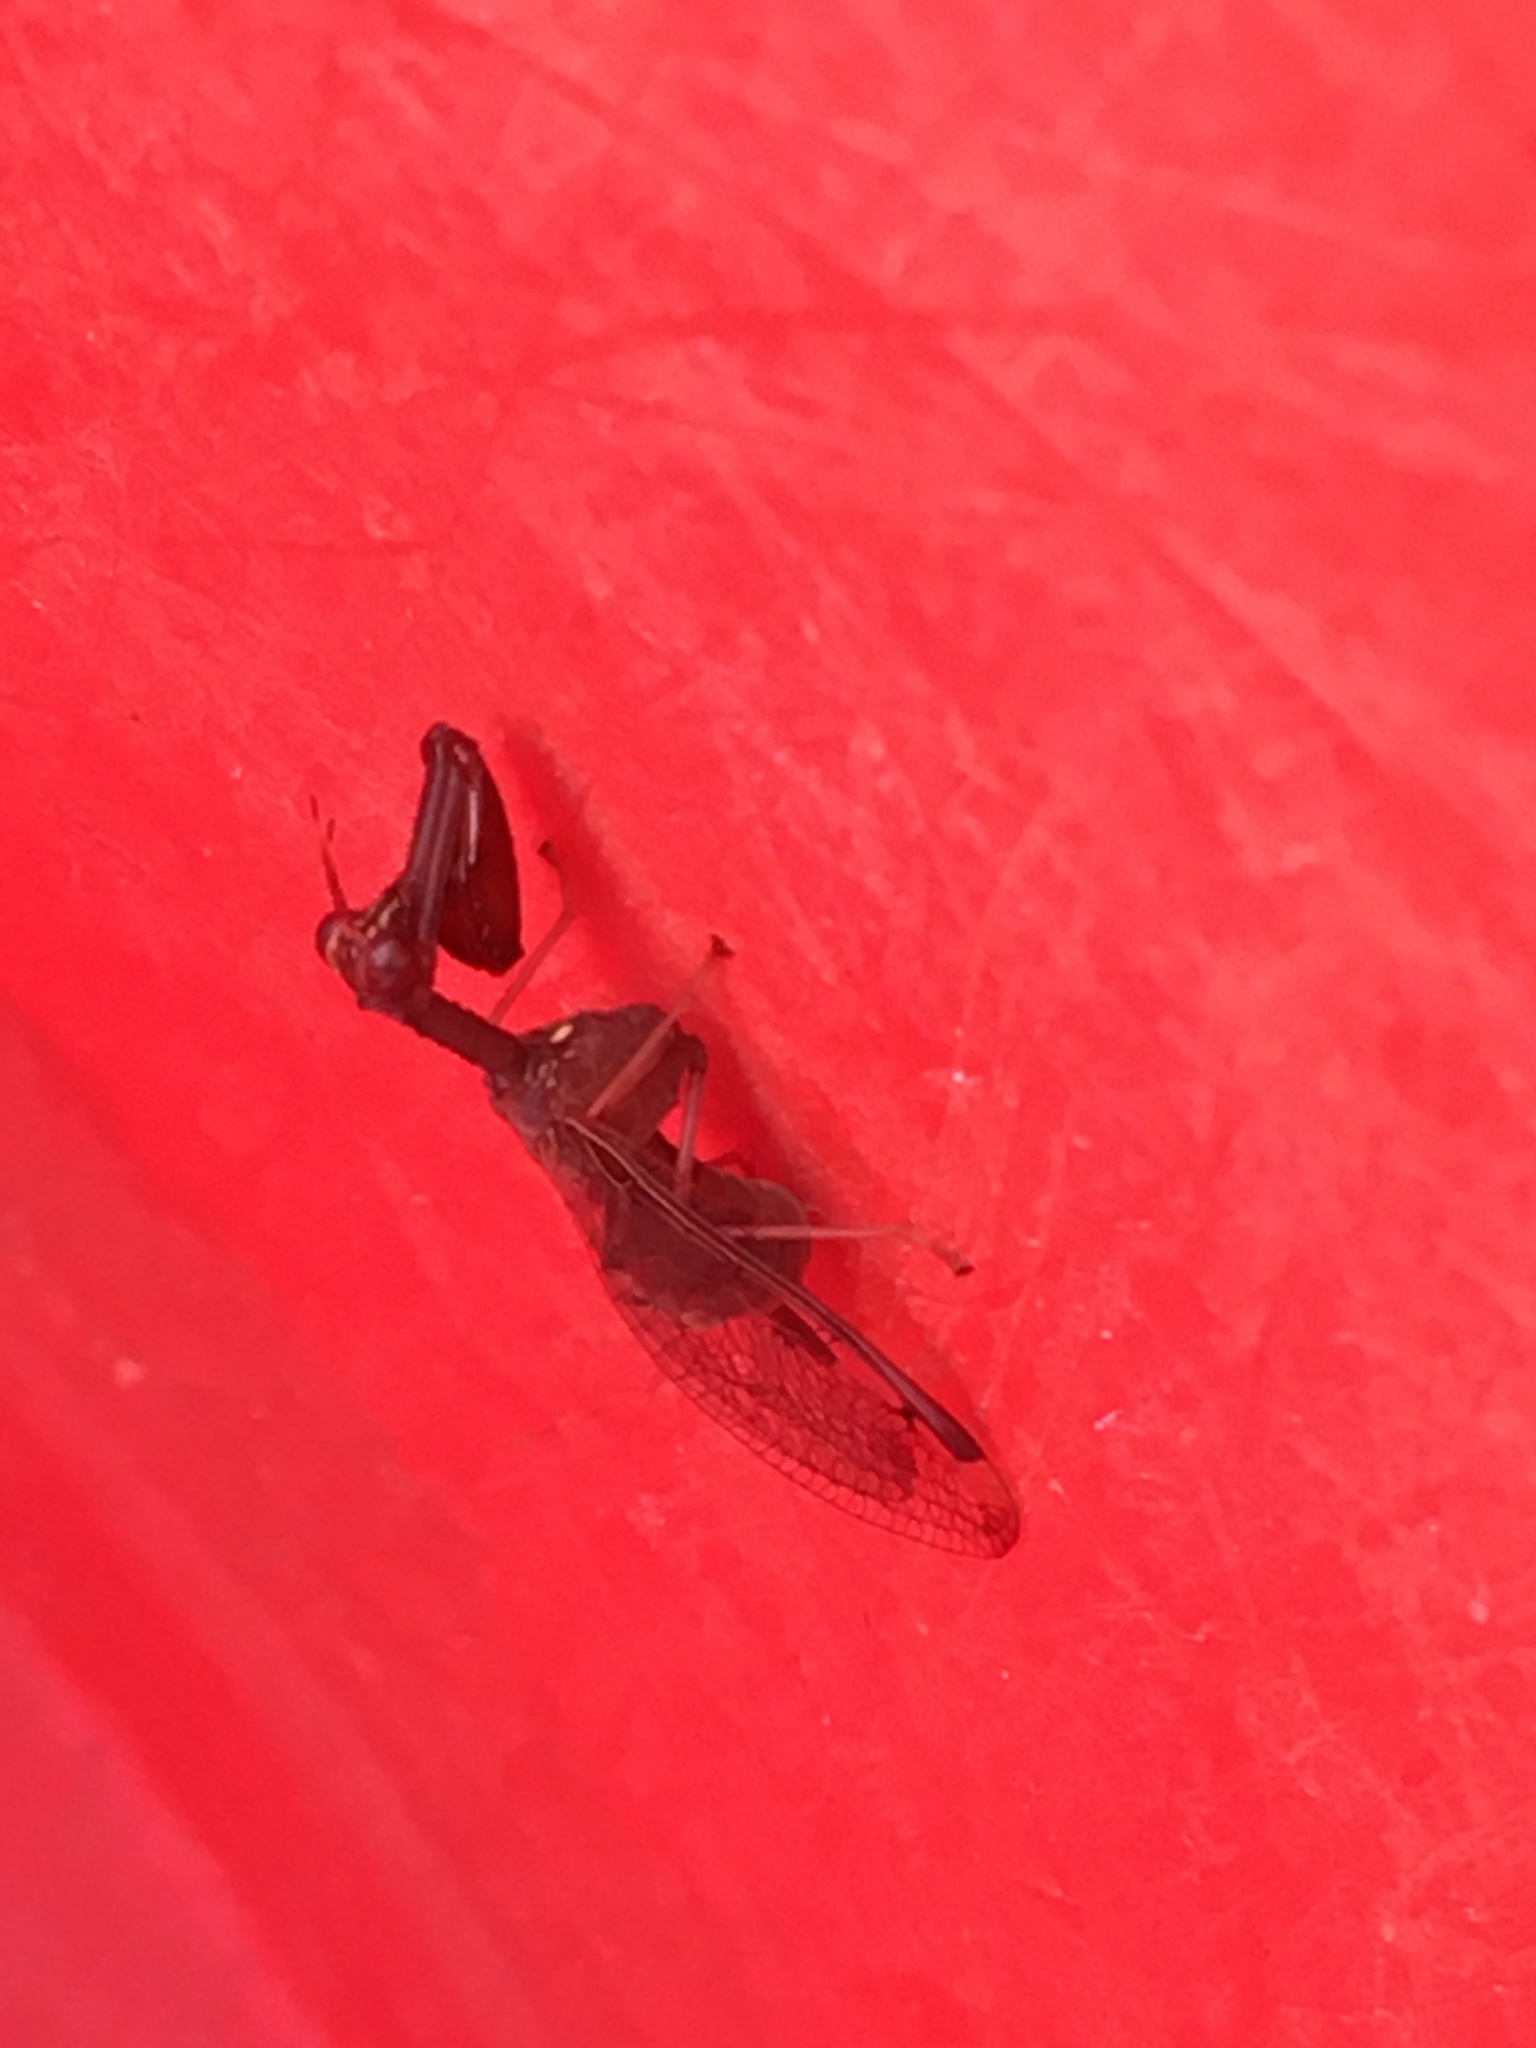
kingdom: Animalia
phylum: Arthropoda
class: Insecta
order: Neuroptera
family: Mantispidae
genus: Dicromantispa
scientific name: Dicromantispa interrupta
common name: Four-spotted mantidfly
